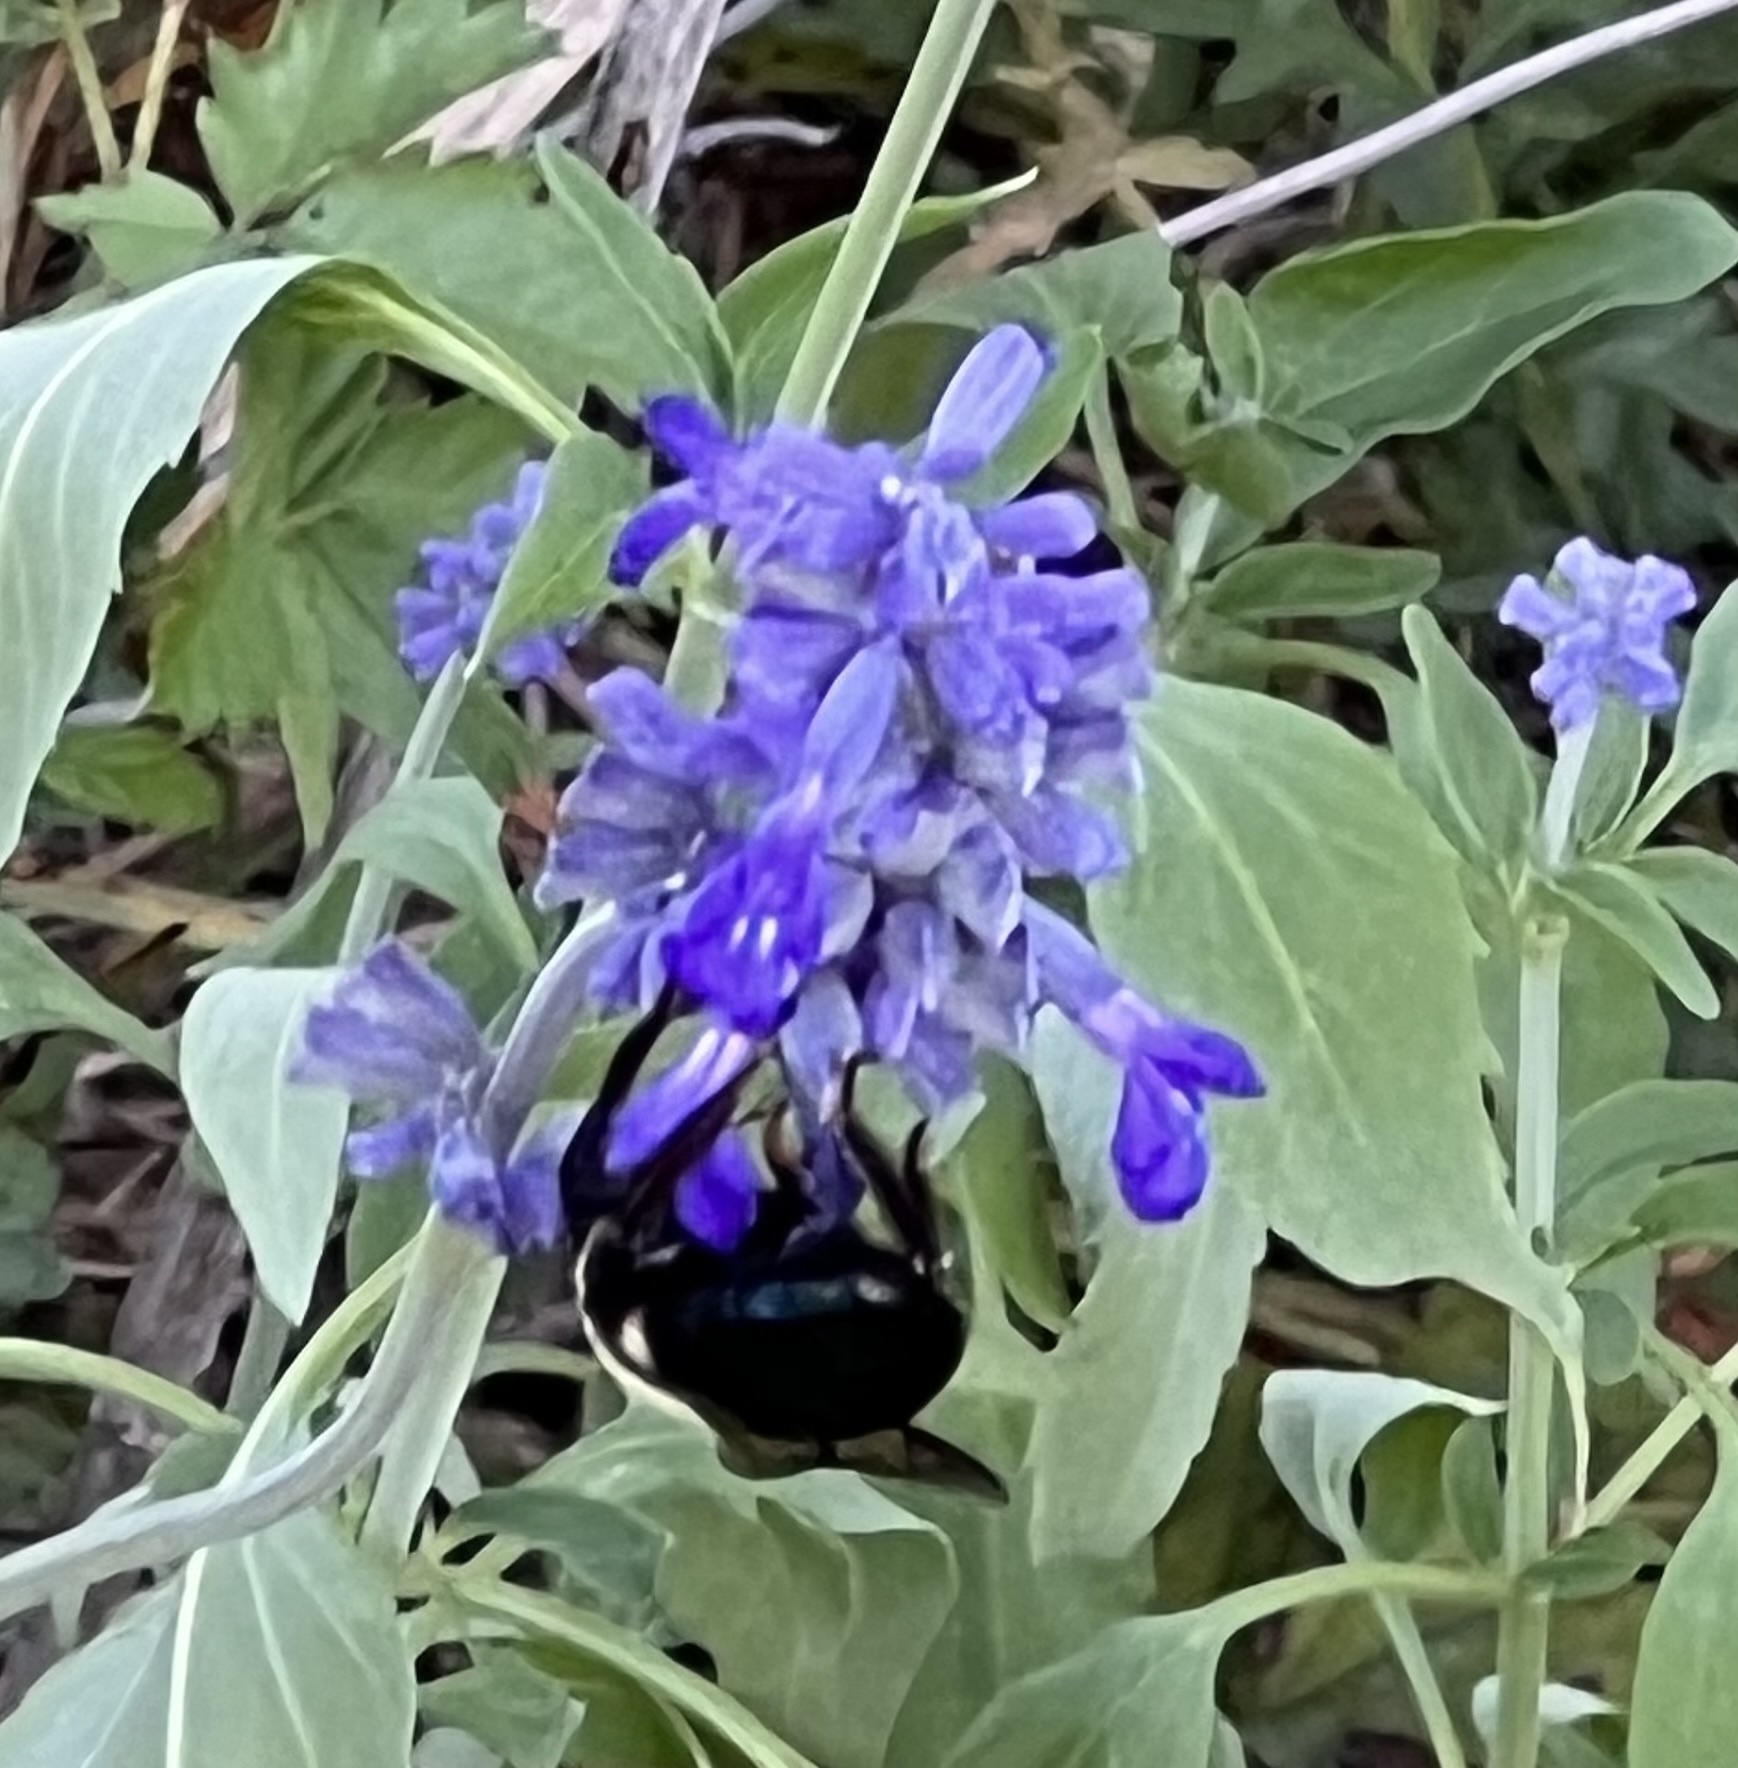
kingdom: Plantae
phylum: Tracheophyta
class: Magnoliopsida
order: Lamiales
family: Lamiaceae
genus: Salvia
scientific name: Salvia farinacea
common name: Mealy sage
